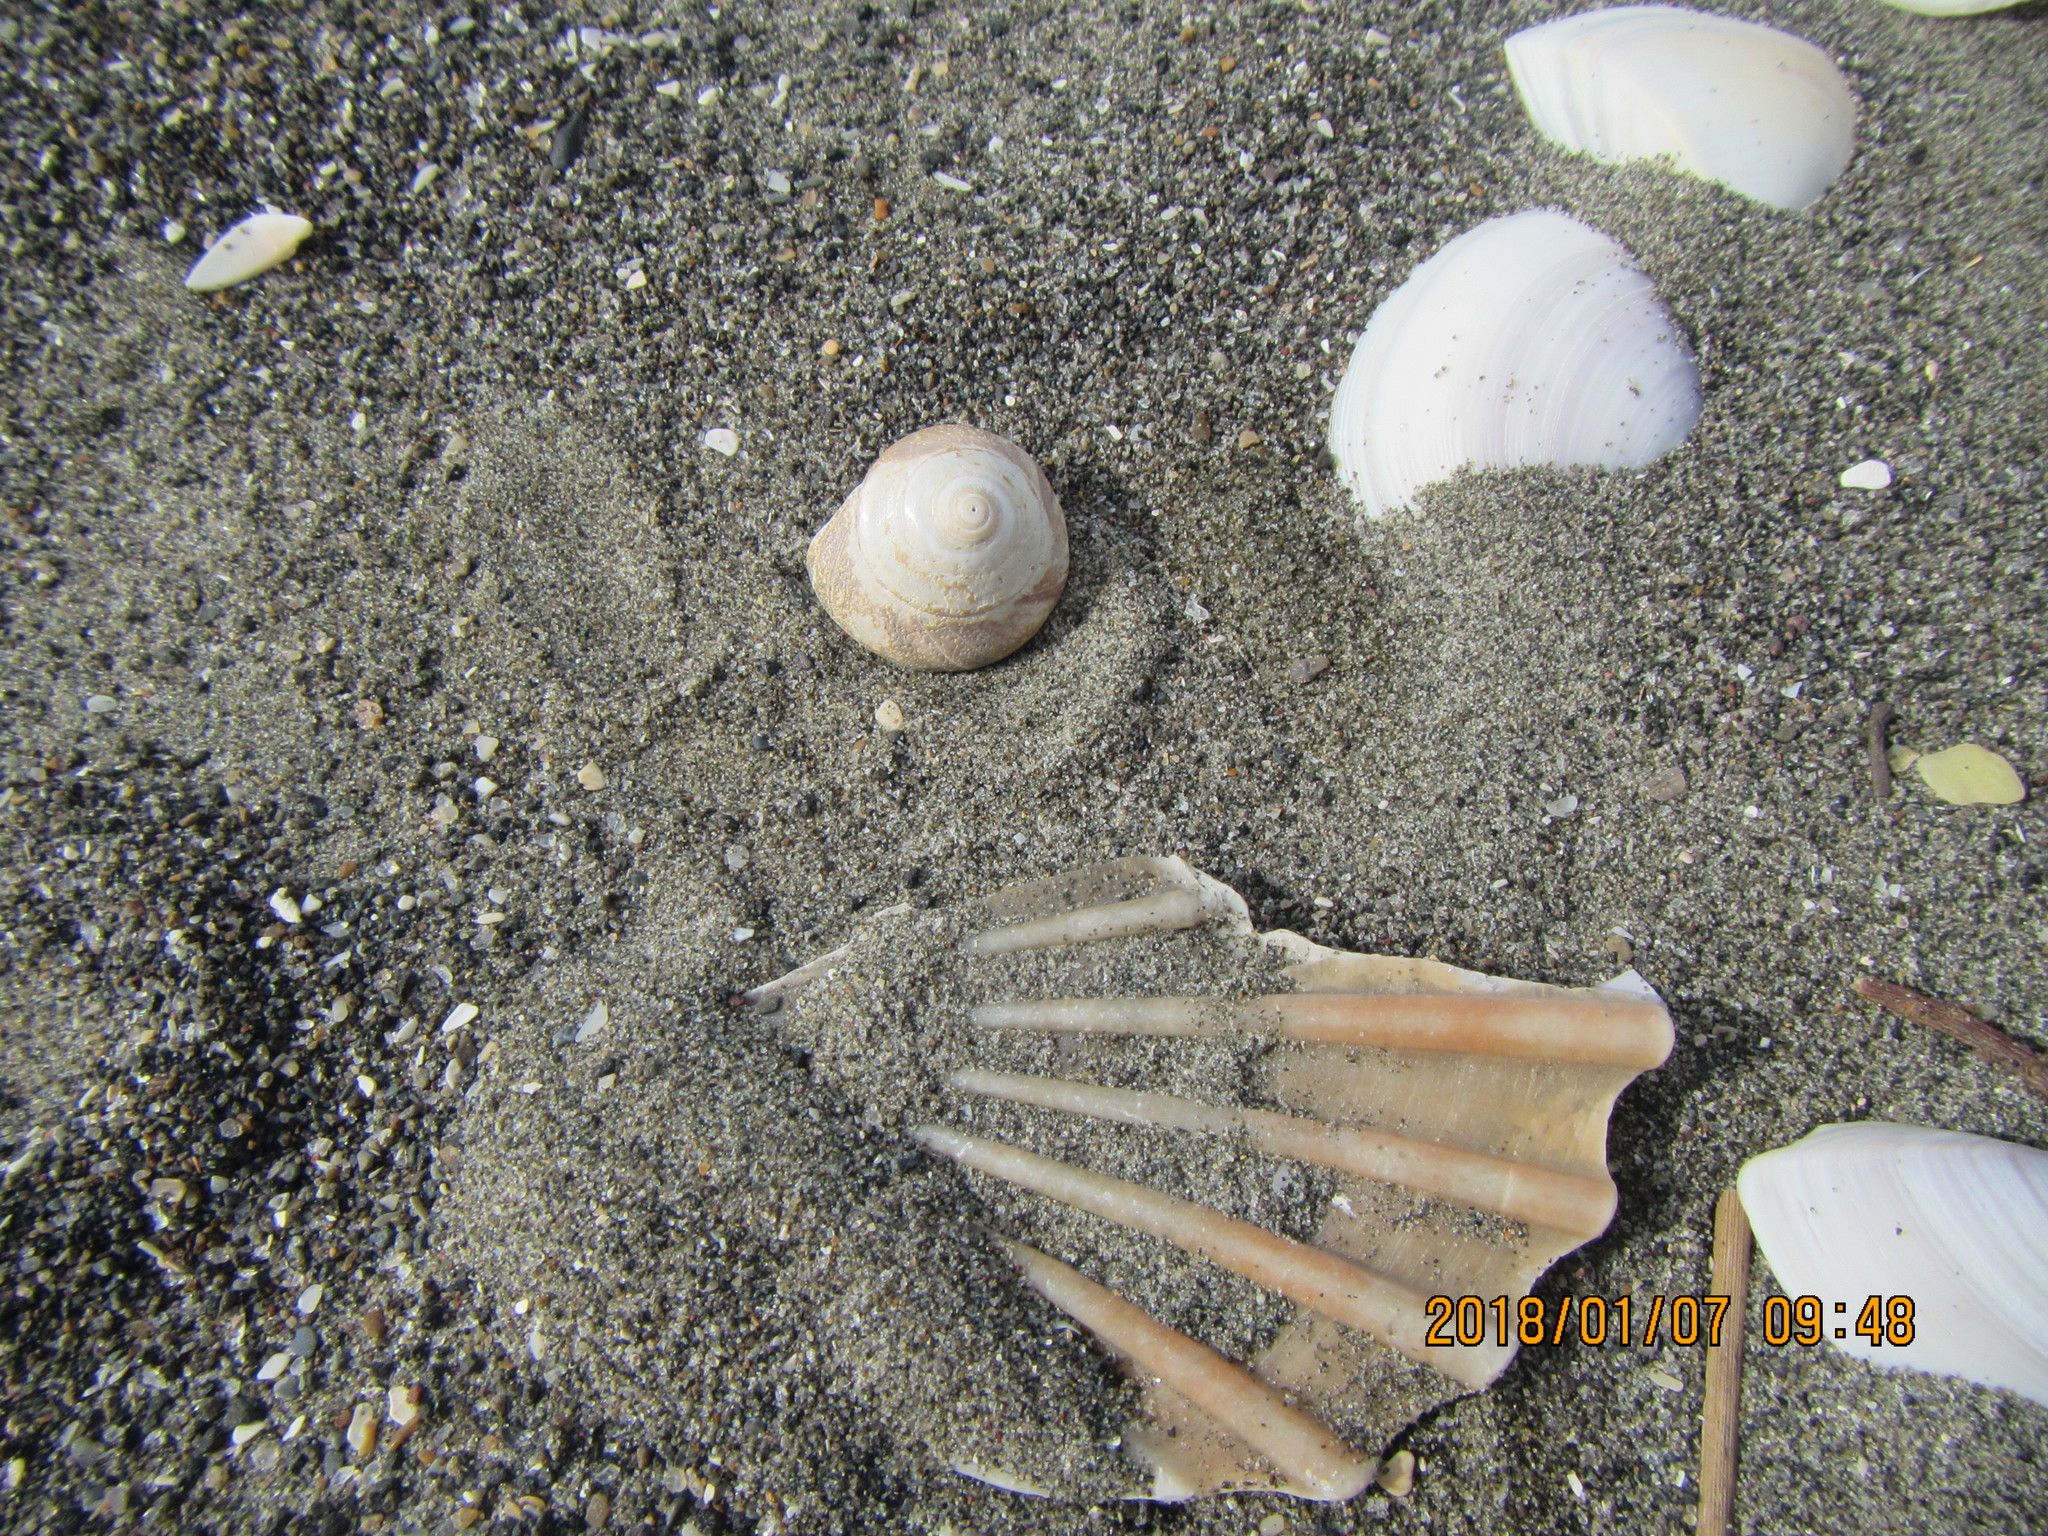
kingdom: Animalia
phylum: Mollusca
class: Gastropoda
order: Trochida
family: Trochidae
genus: Zethalia
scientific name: Zethalia zelandica
